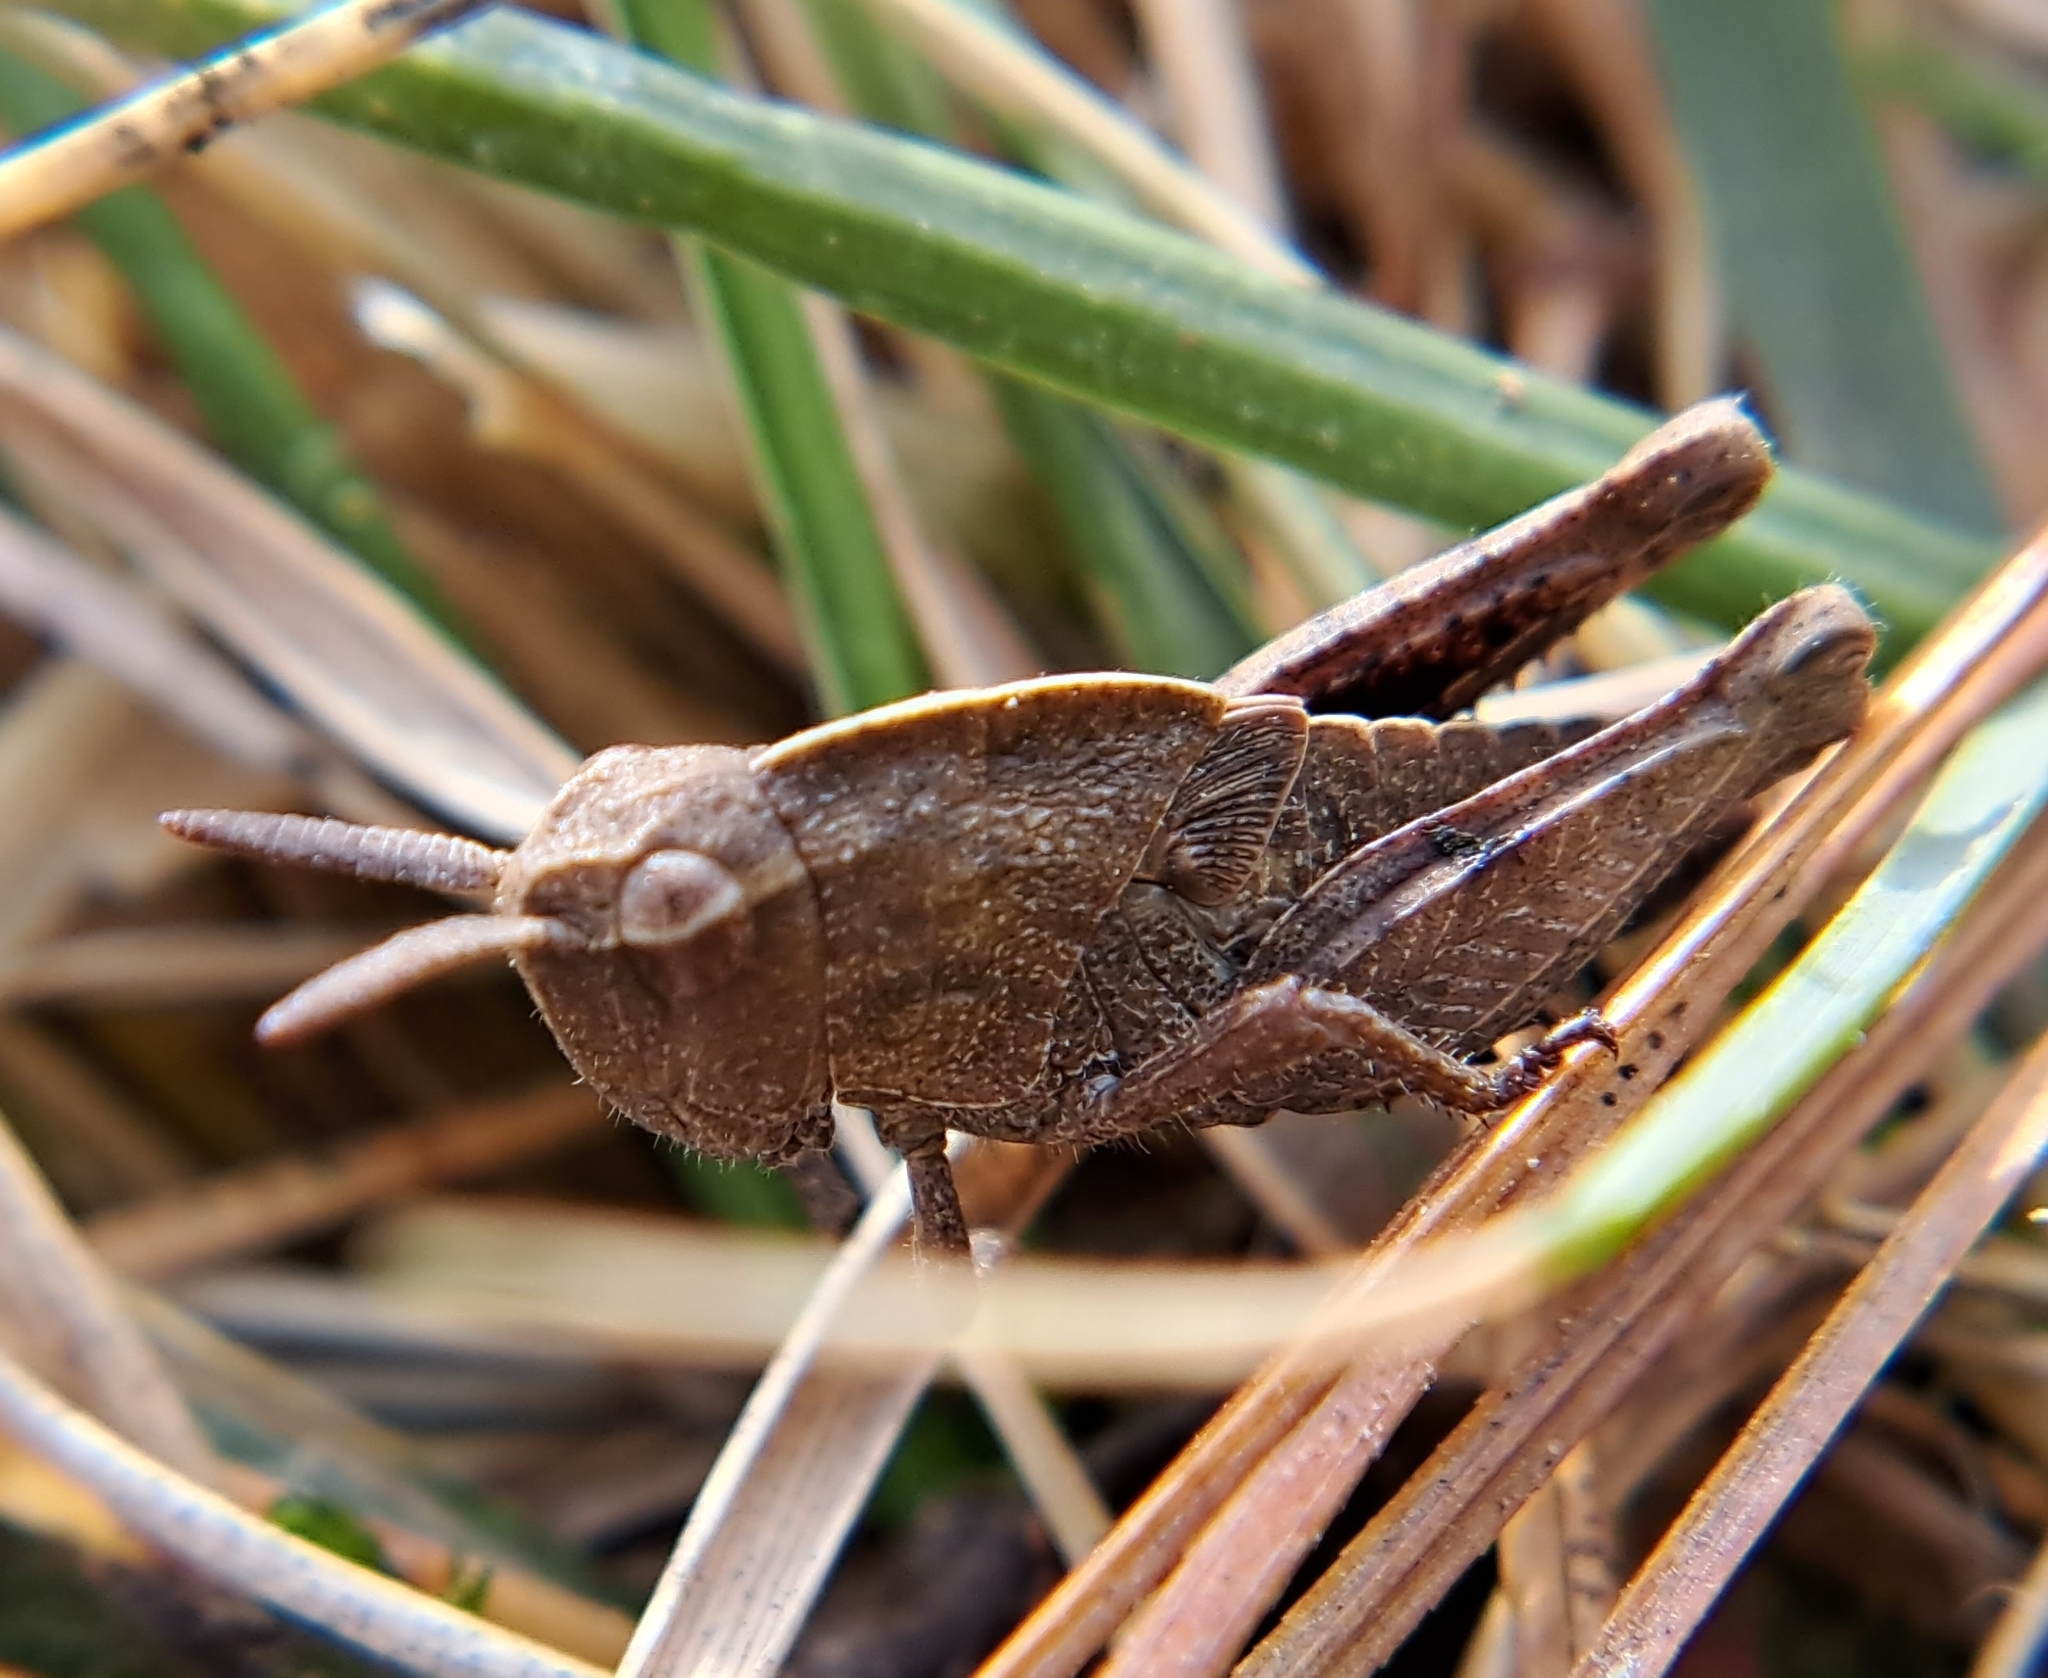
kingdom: Animalia
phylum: Arthropoda
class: Insecta
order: Orthoptera
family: Acrididae
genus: Chortophaga
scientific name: Chortophaga viridifasciata
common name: Green-striped grasshopper
